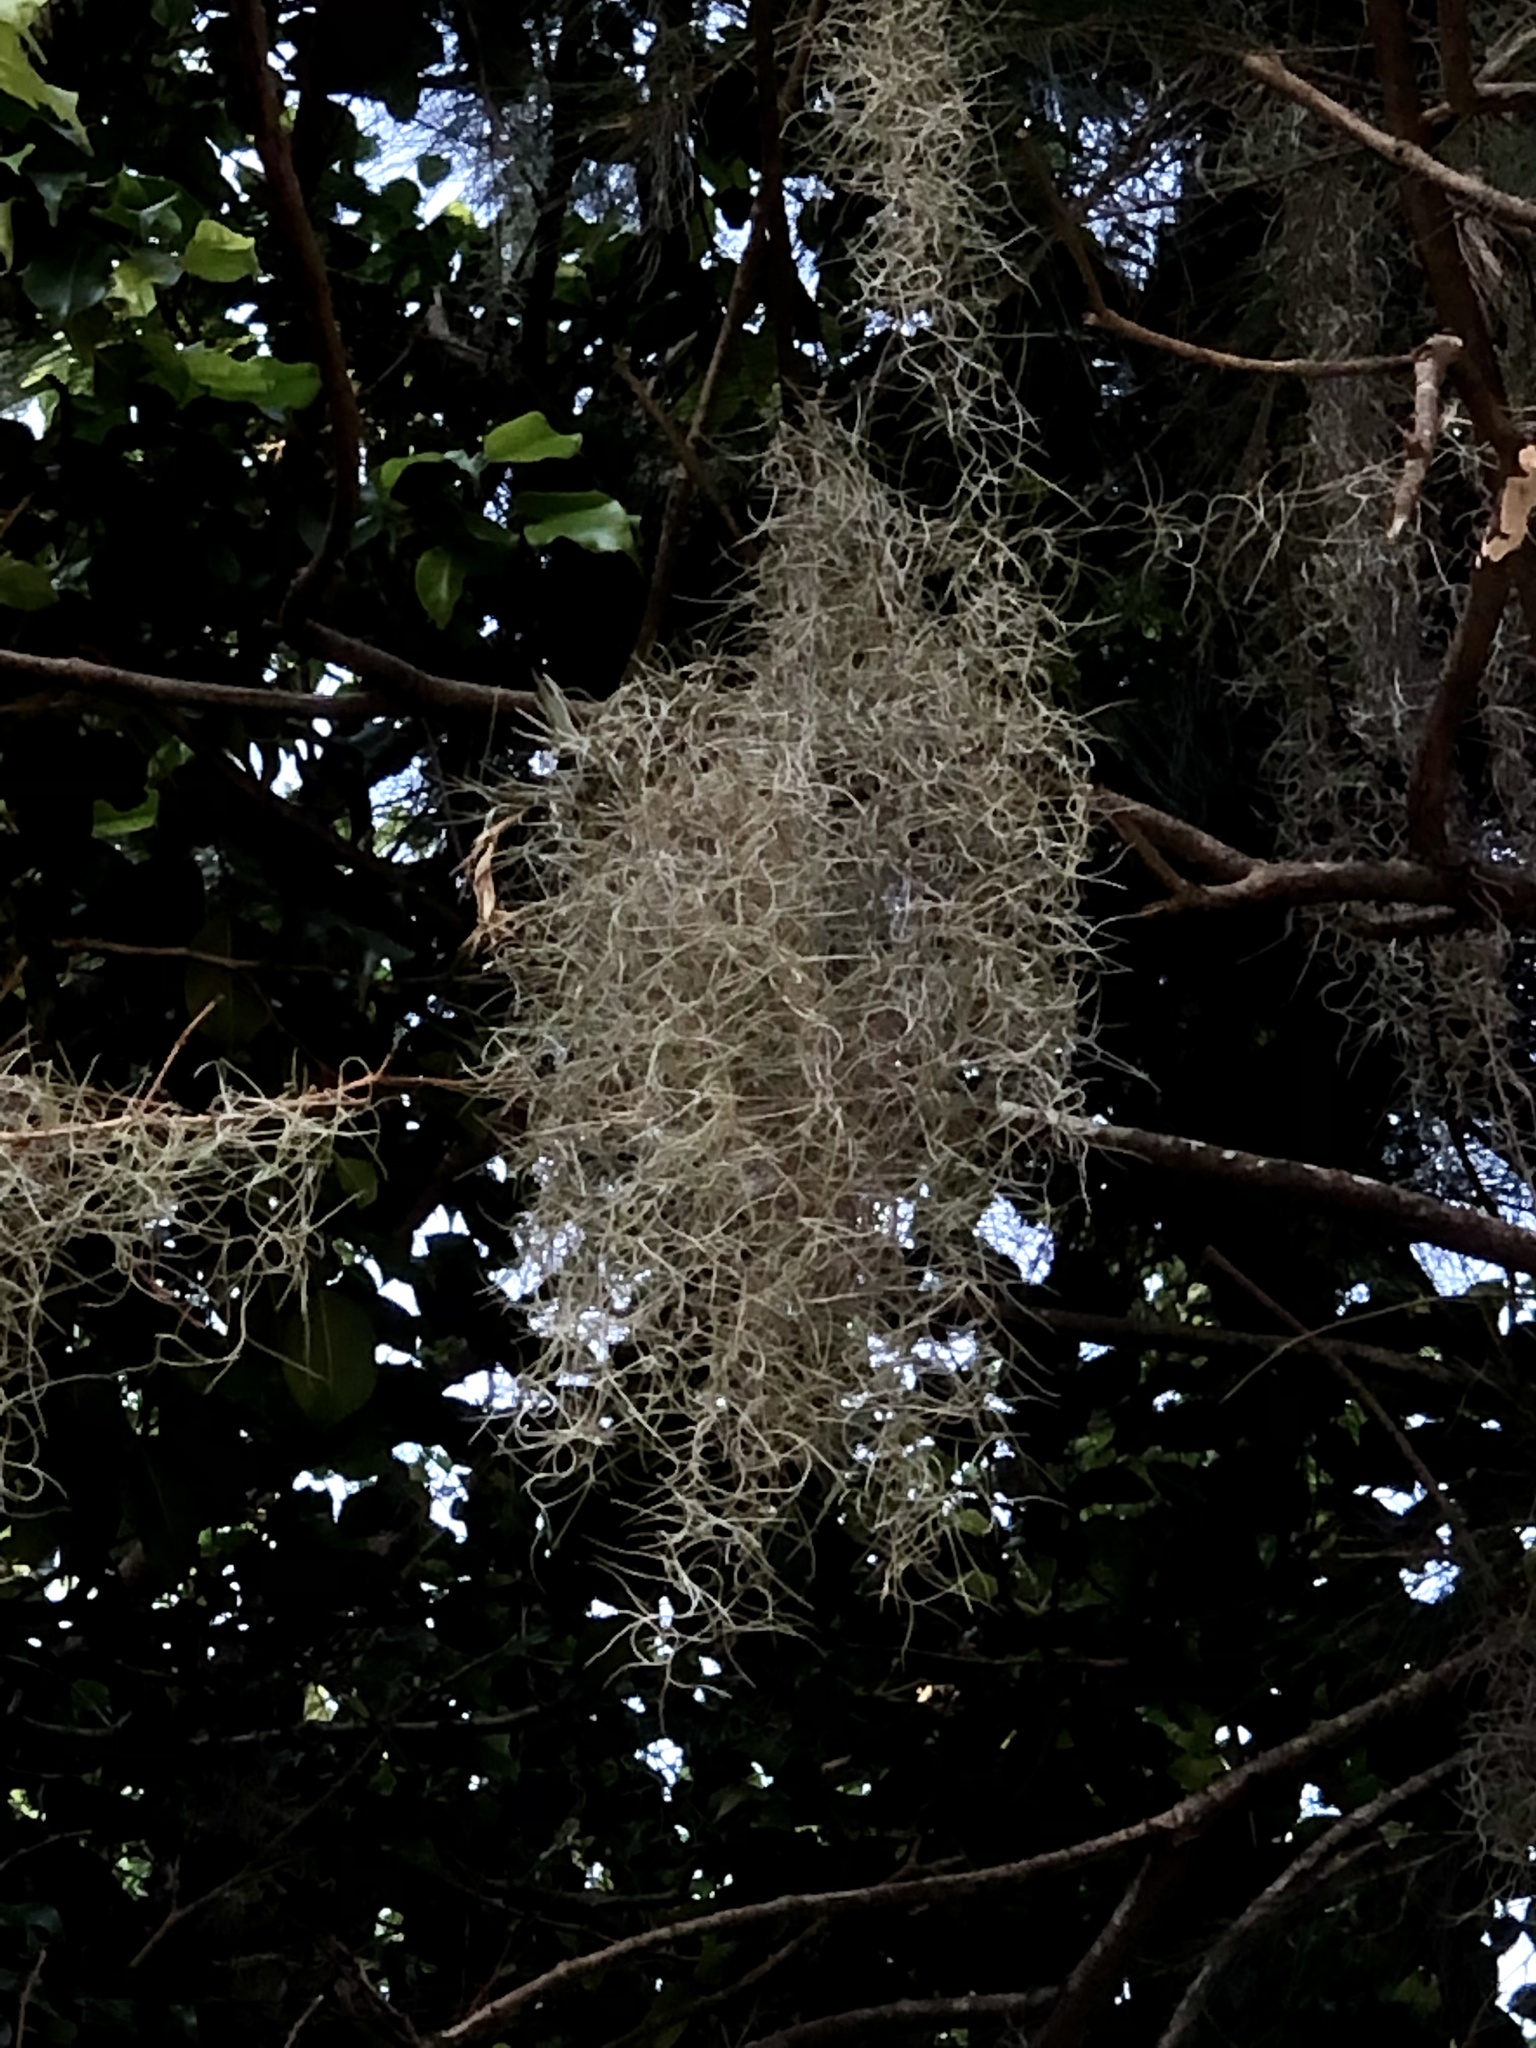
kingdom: Plantae
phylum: Tracheophyta
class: Liliopsida
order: Poales
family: Bromeliaceae
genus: Tillandsia
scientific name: Tillandsia usneoides
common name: Spanish moss
